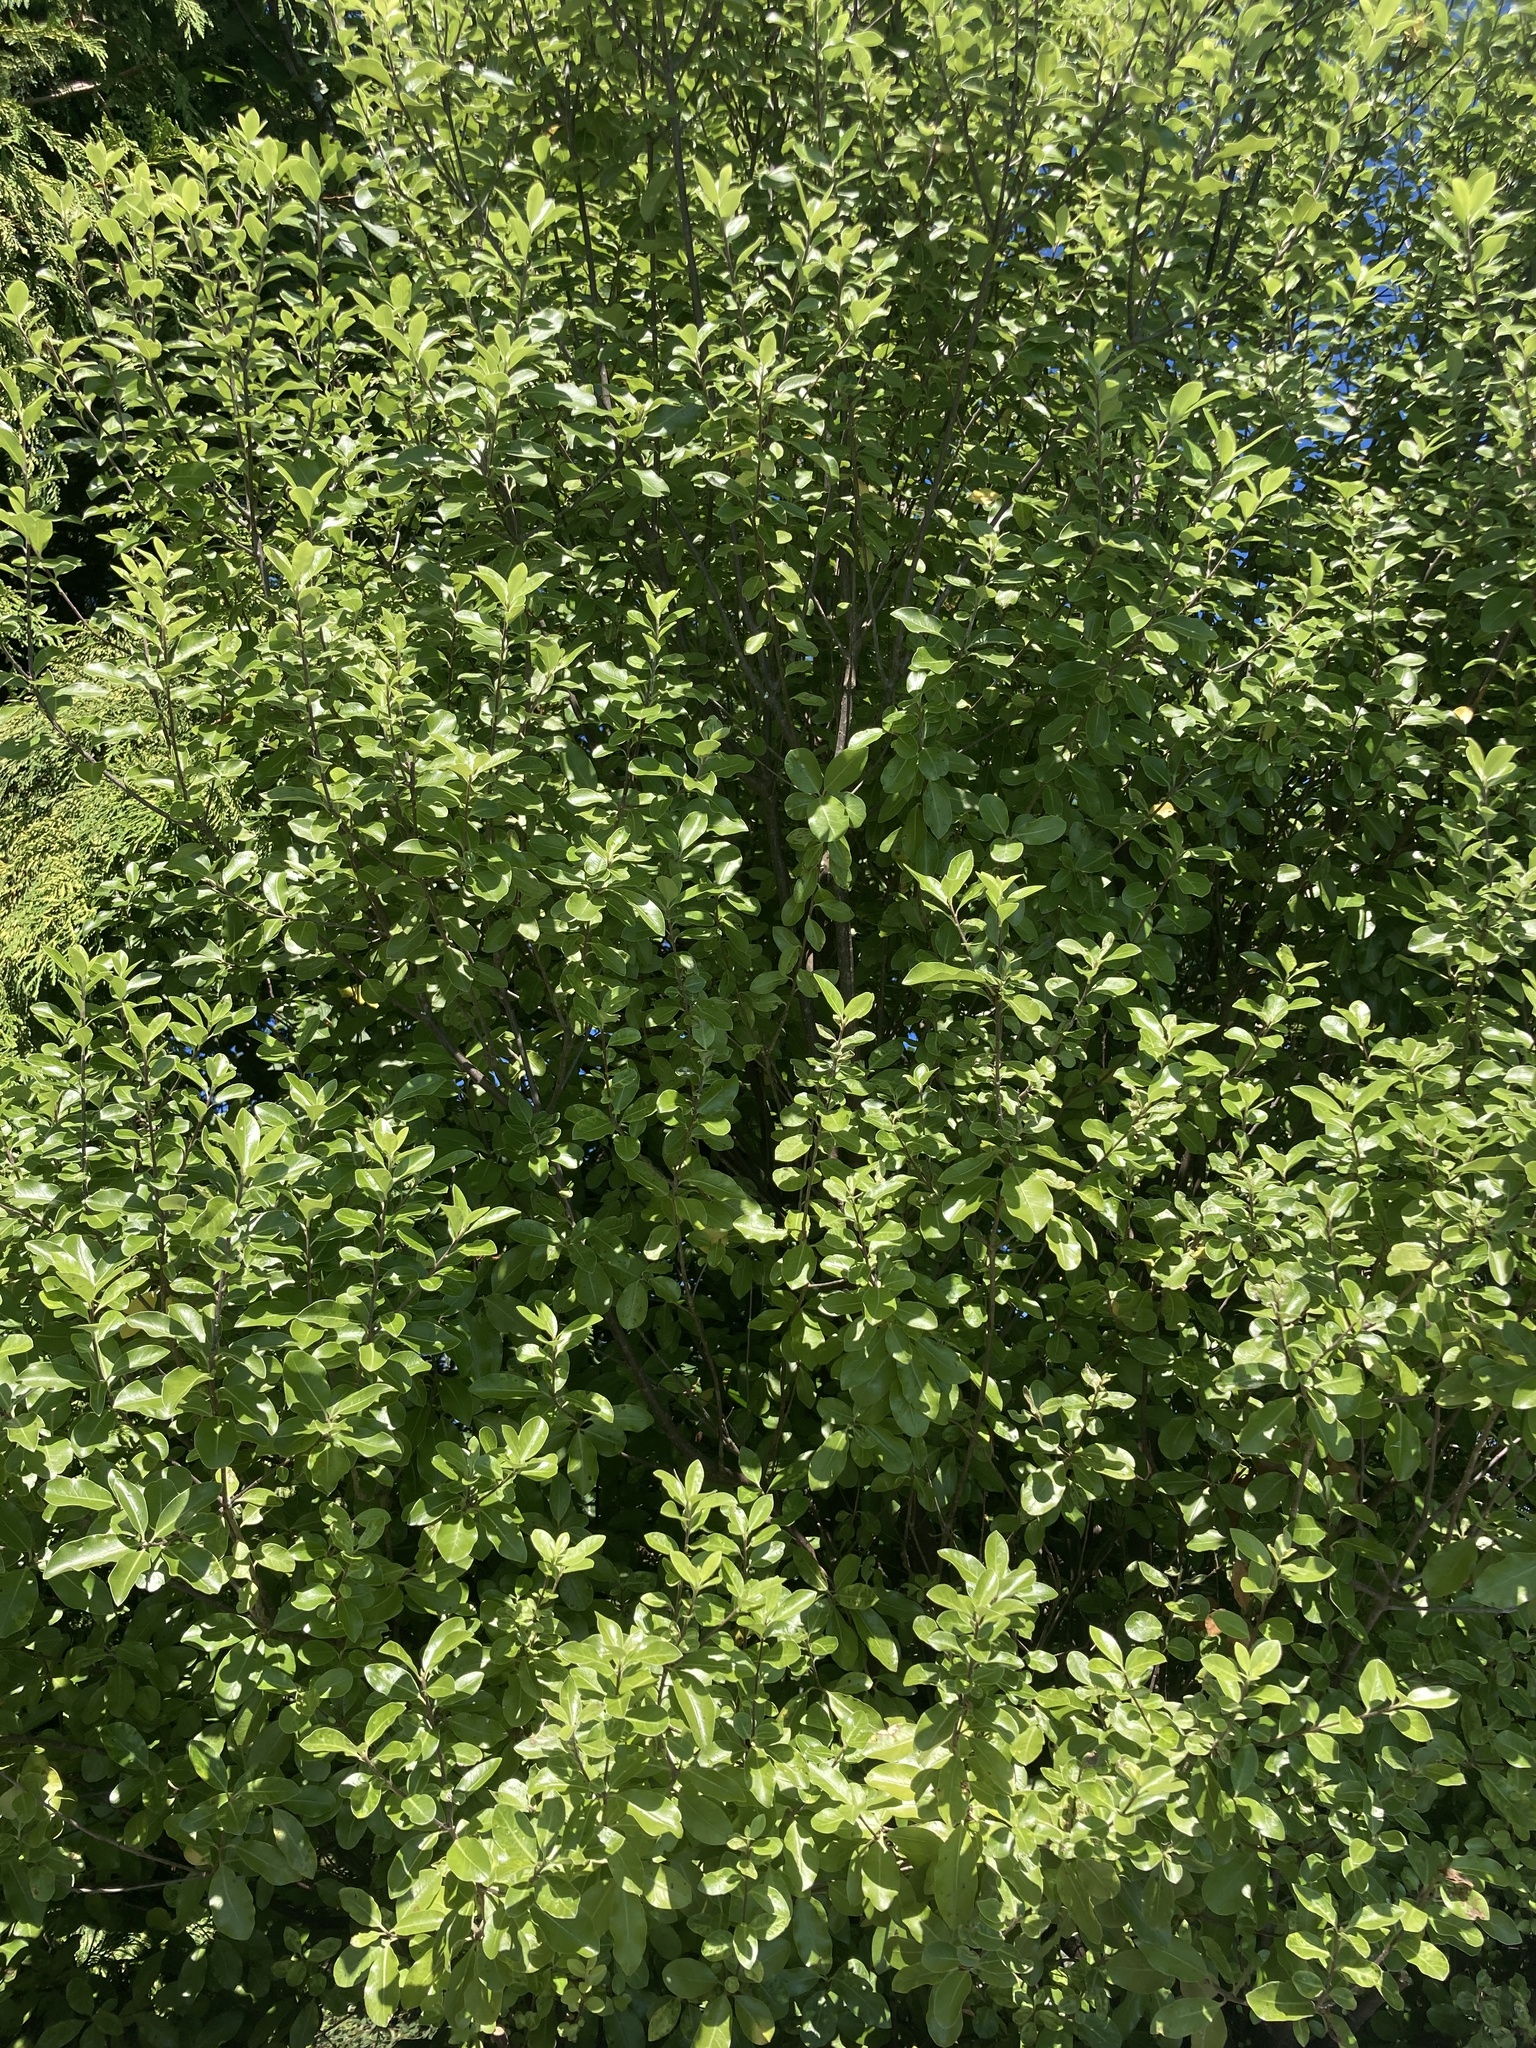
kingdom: Plantae
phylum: Tracheophyta
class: Magnoliopsida
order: Apiales
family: Pittosporaceae
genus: Pittosporum
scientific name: Pittosporum tenuifolium
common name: Kohuhu
